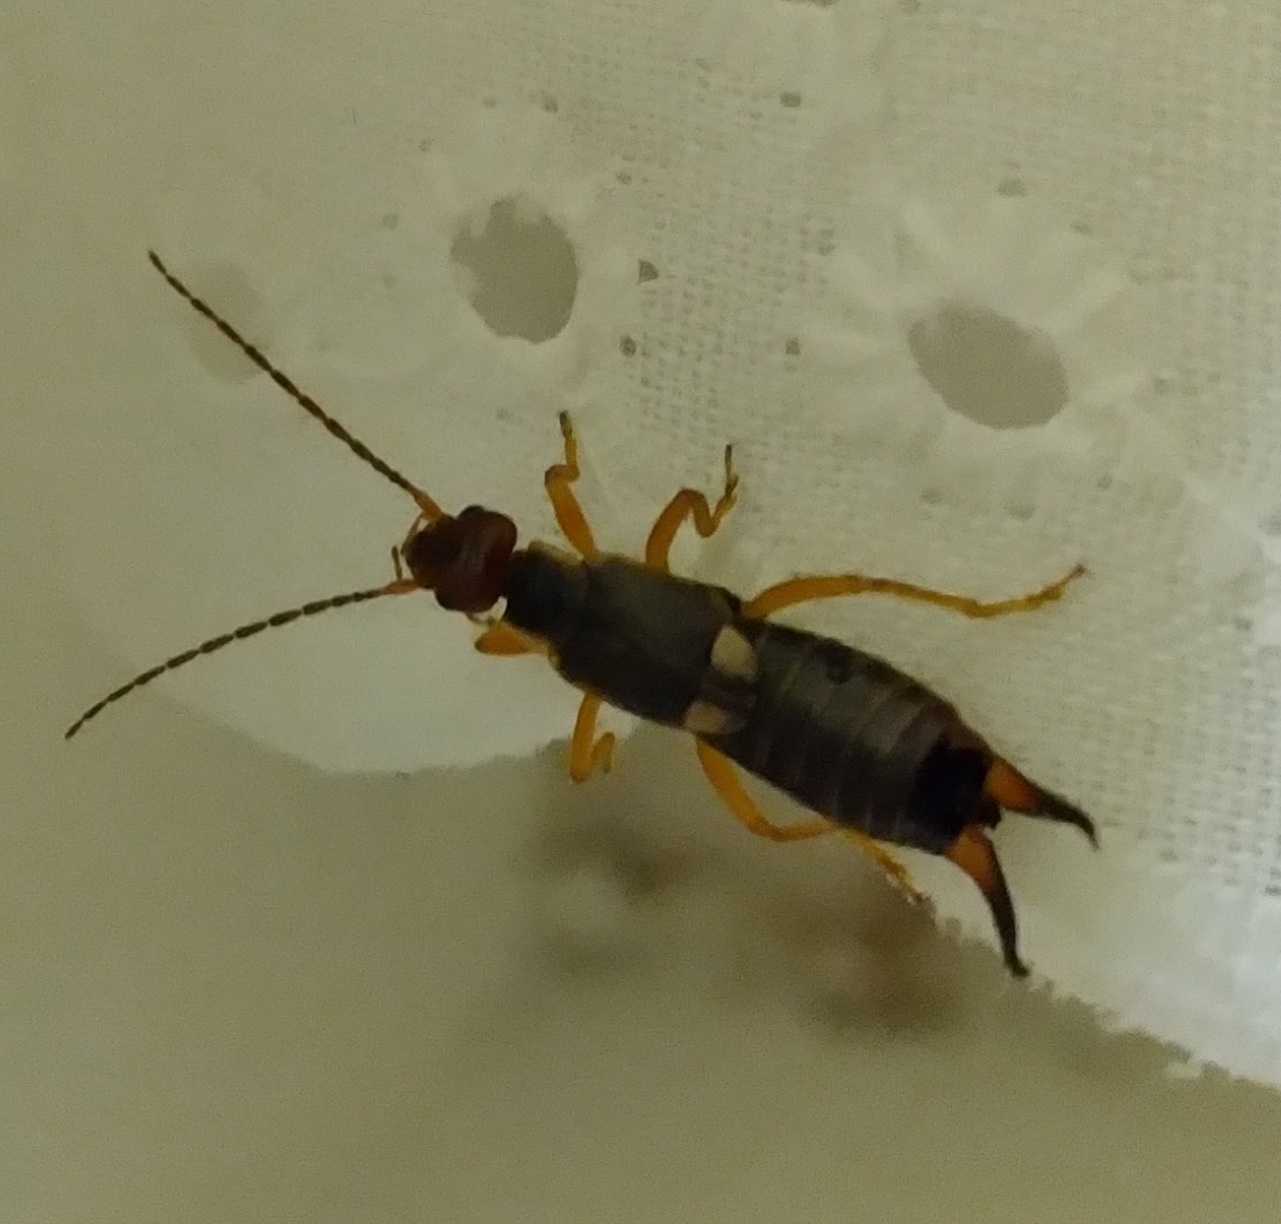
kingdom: Animalia
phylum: Arthropoda
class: Insecta
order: Dermaptera
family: Forficulidae
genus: Forficula
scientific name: Forficula
